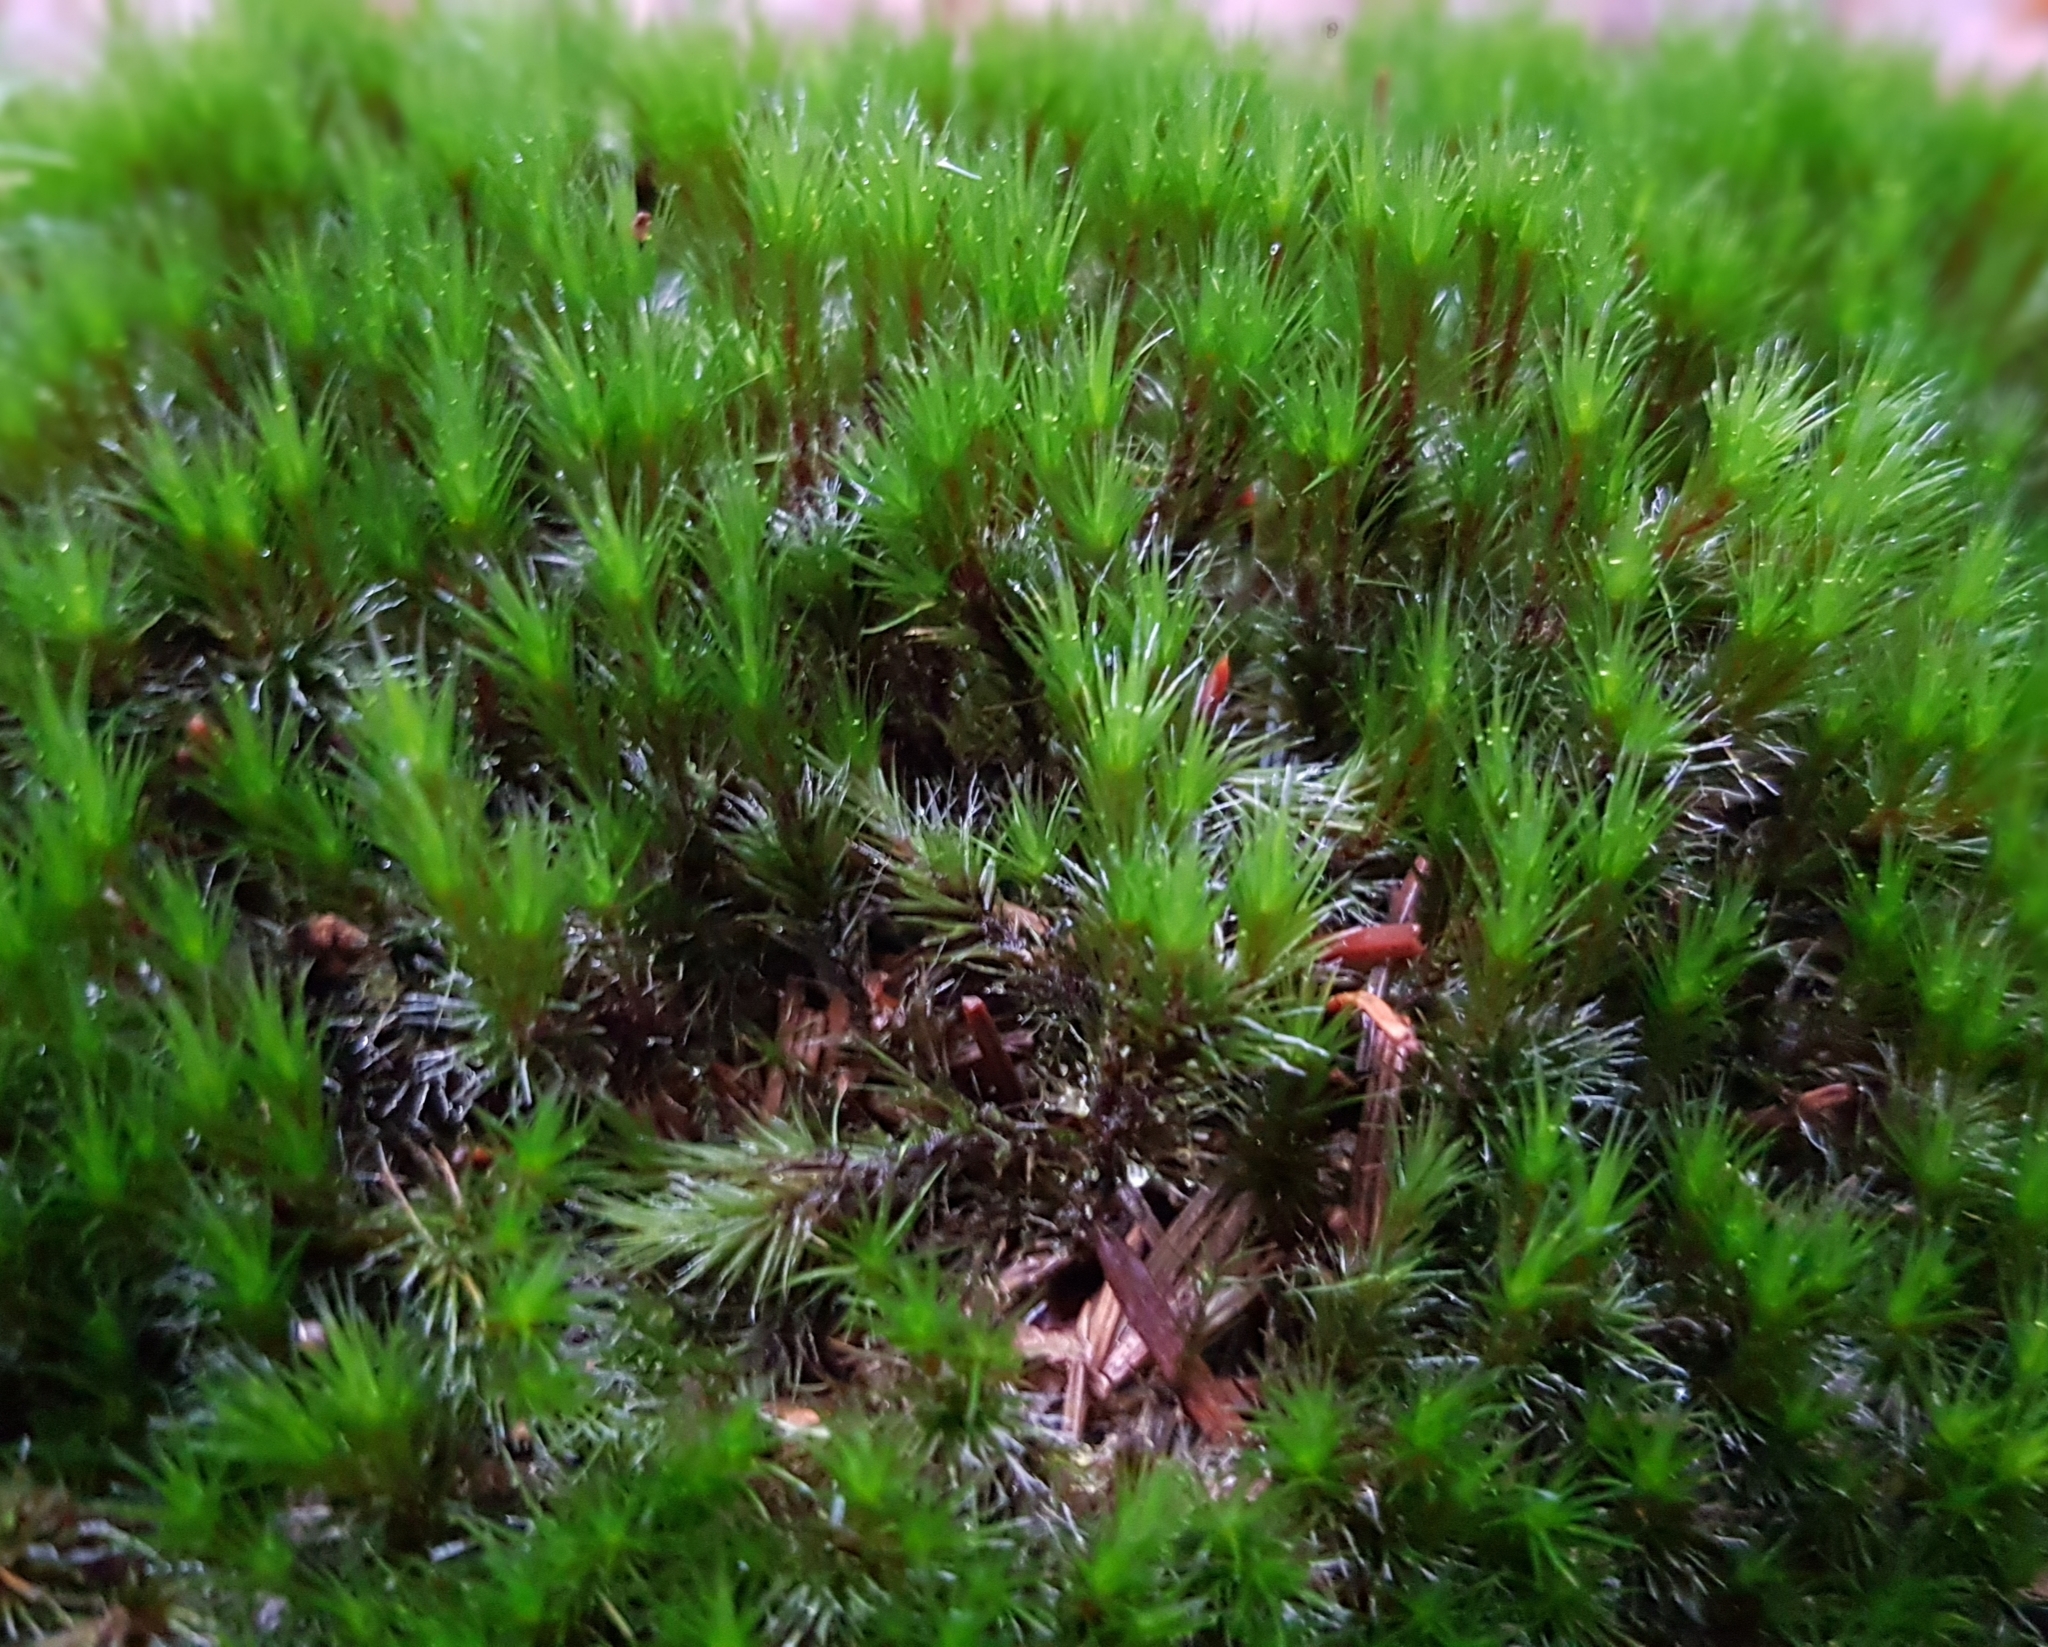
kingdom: Plantae
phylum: Bryophyta
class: Bryopsida
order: Dicranales
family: Leucobryaceae
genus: Campylopus
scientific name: Campylopus introflexus
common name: Heath star moss
